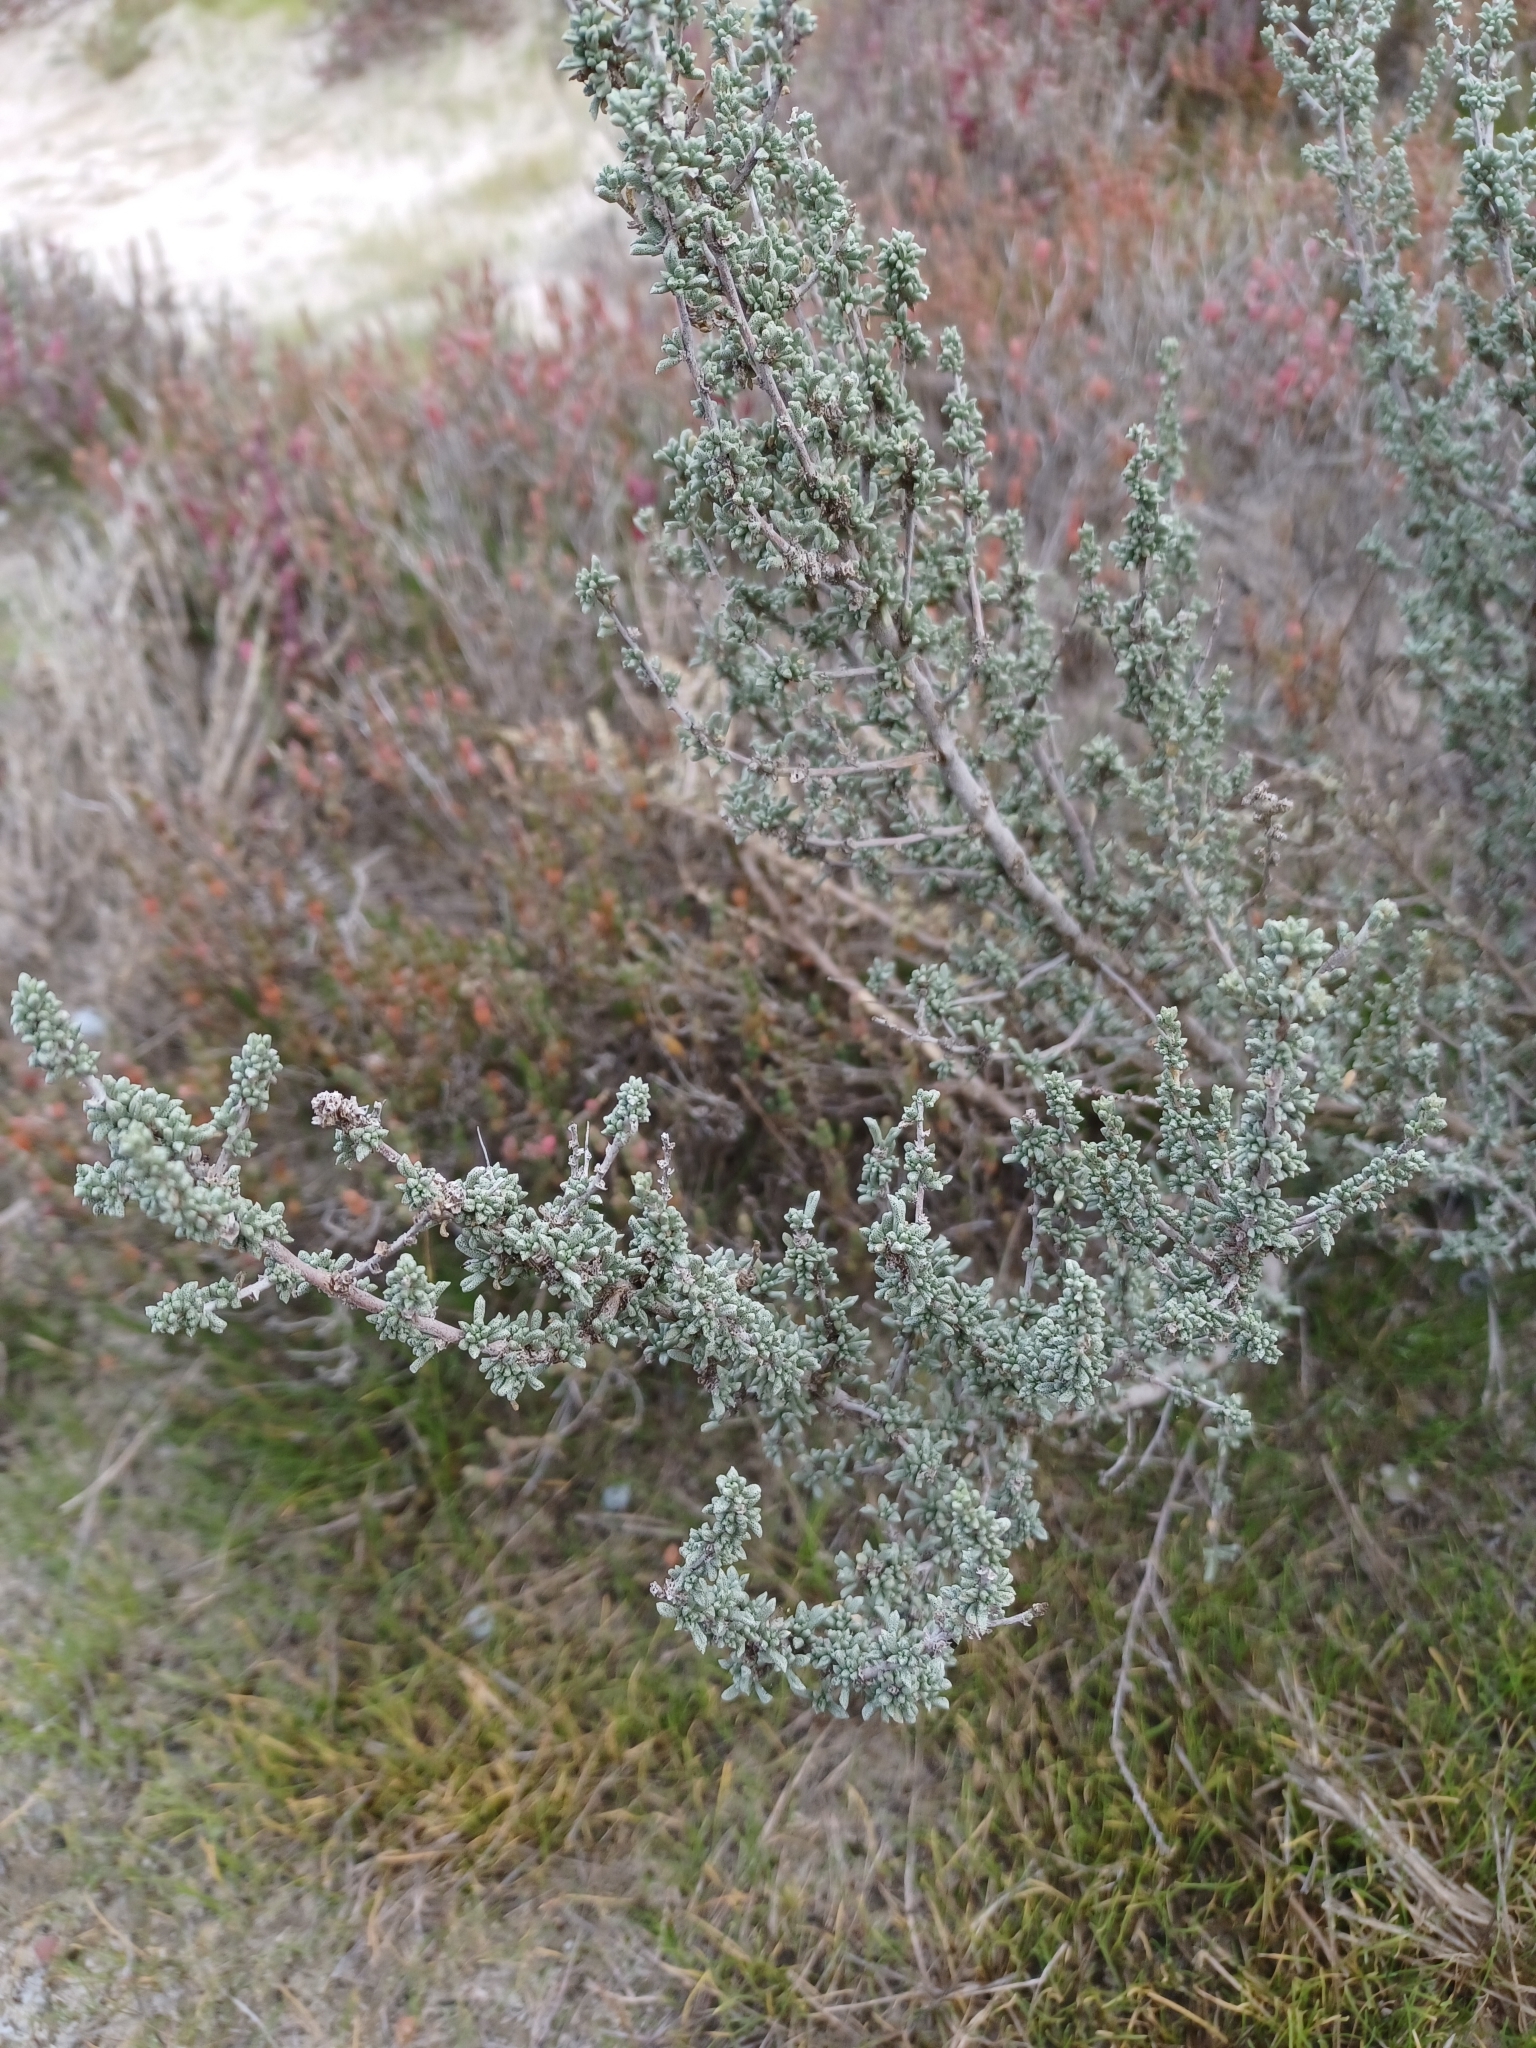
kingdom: Plantae
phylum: Tracheophyta
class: Magnoliopsida
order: Malvales
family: Malvaceae
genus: Lawrencia
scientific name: Lawrencia squamata
